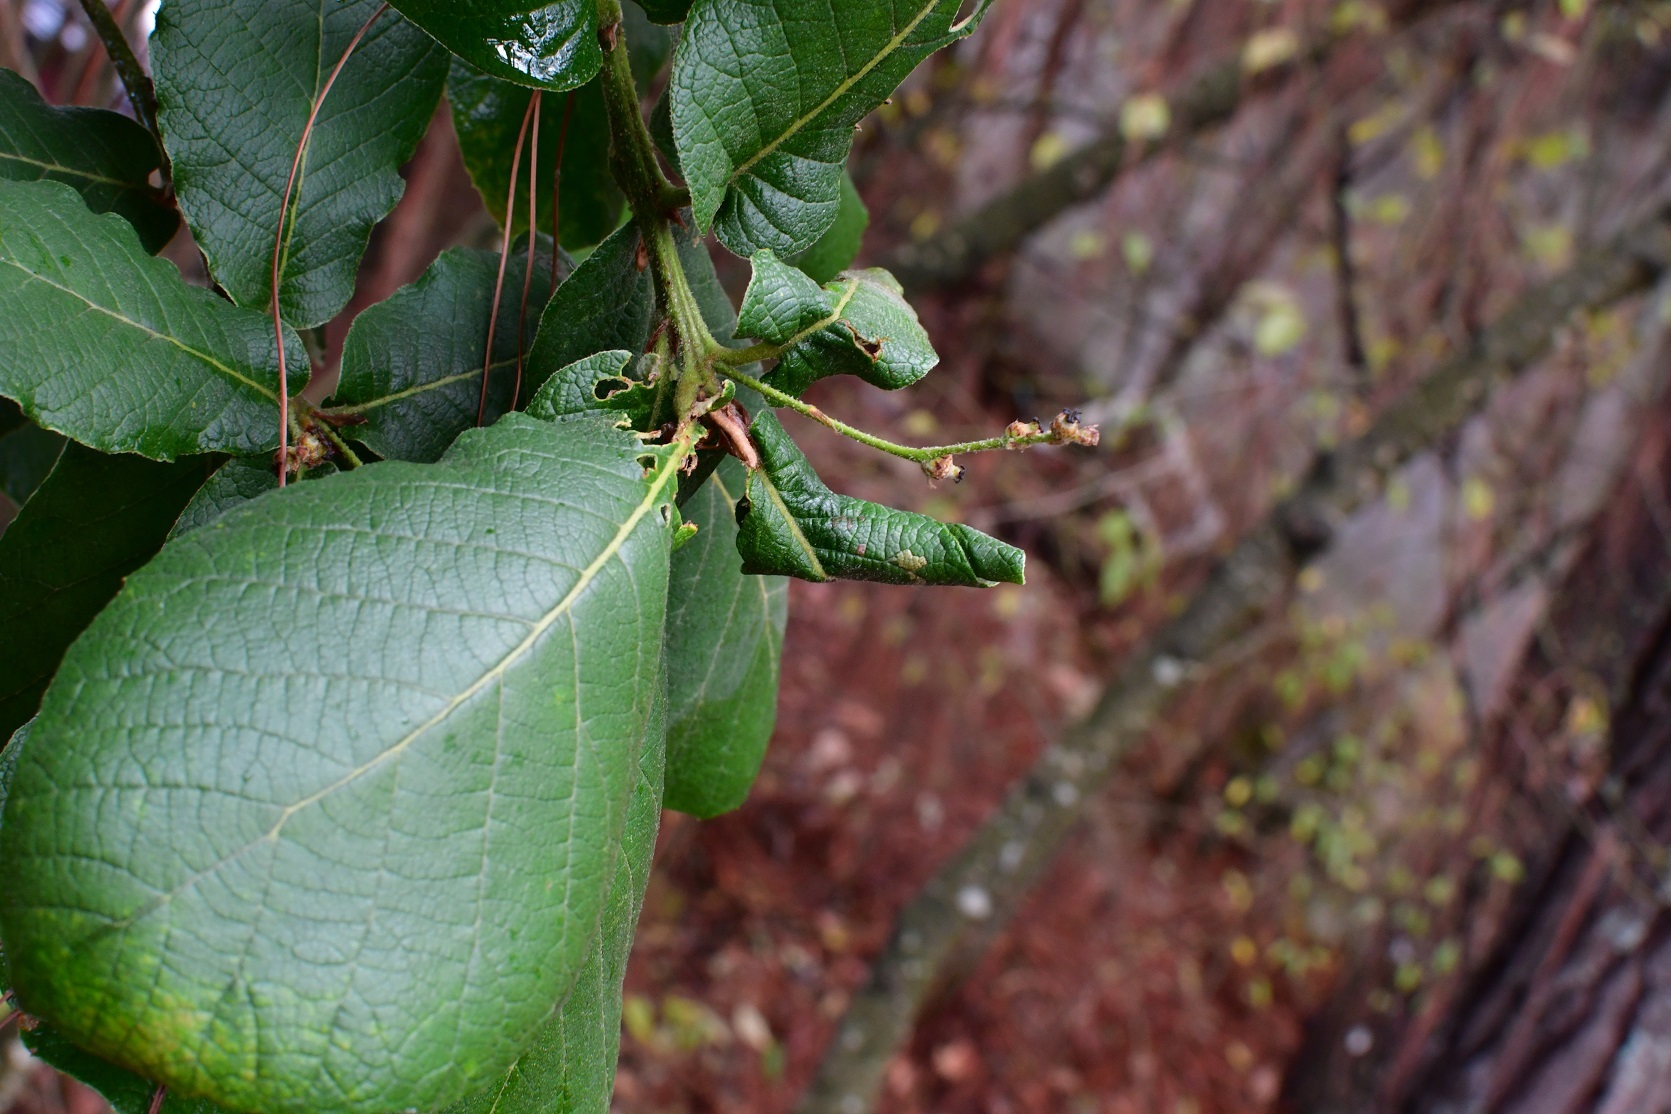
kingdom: Plantae
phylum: Tracheophyta
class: Magnoliopsida
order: Fagales
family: Fagaceae
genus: Quercus
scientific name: Quercus rugosa
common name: Netleaf oak
